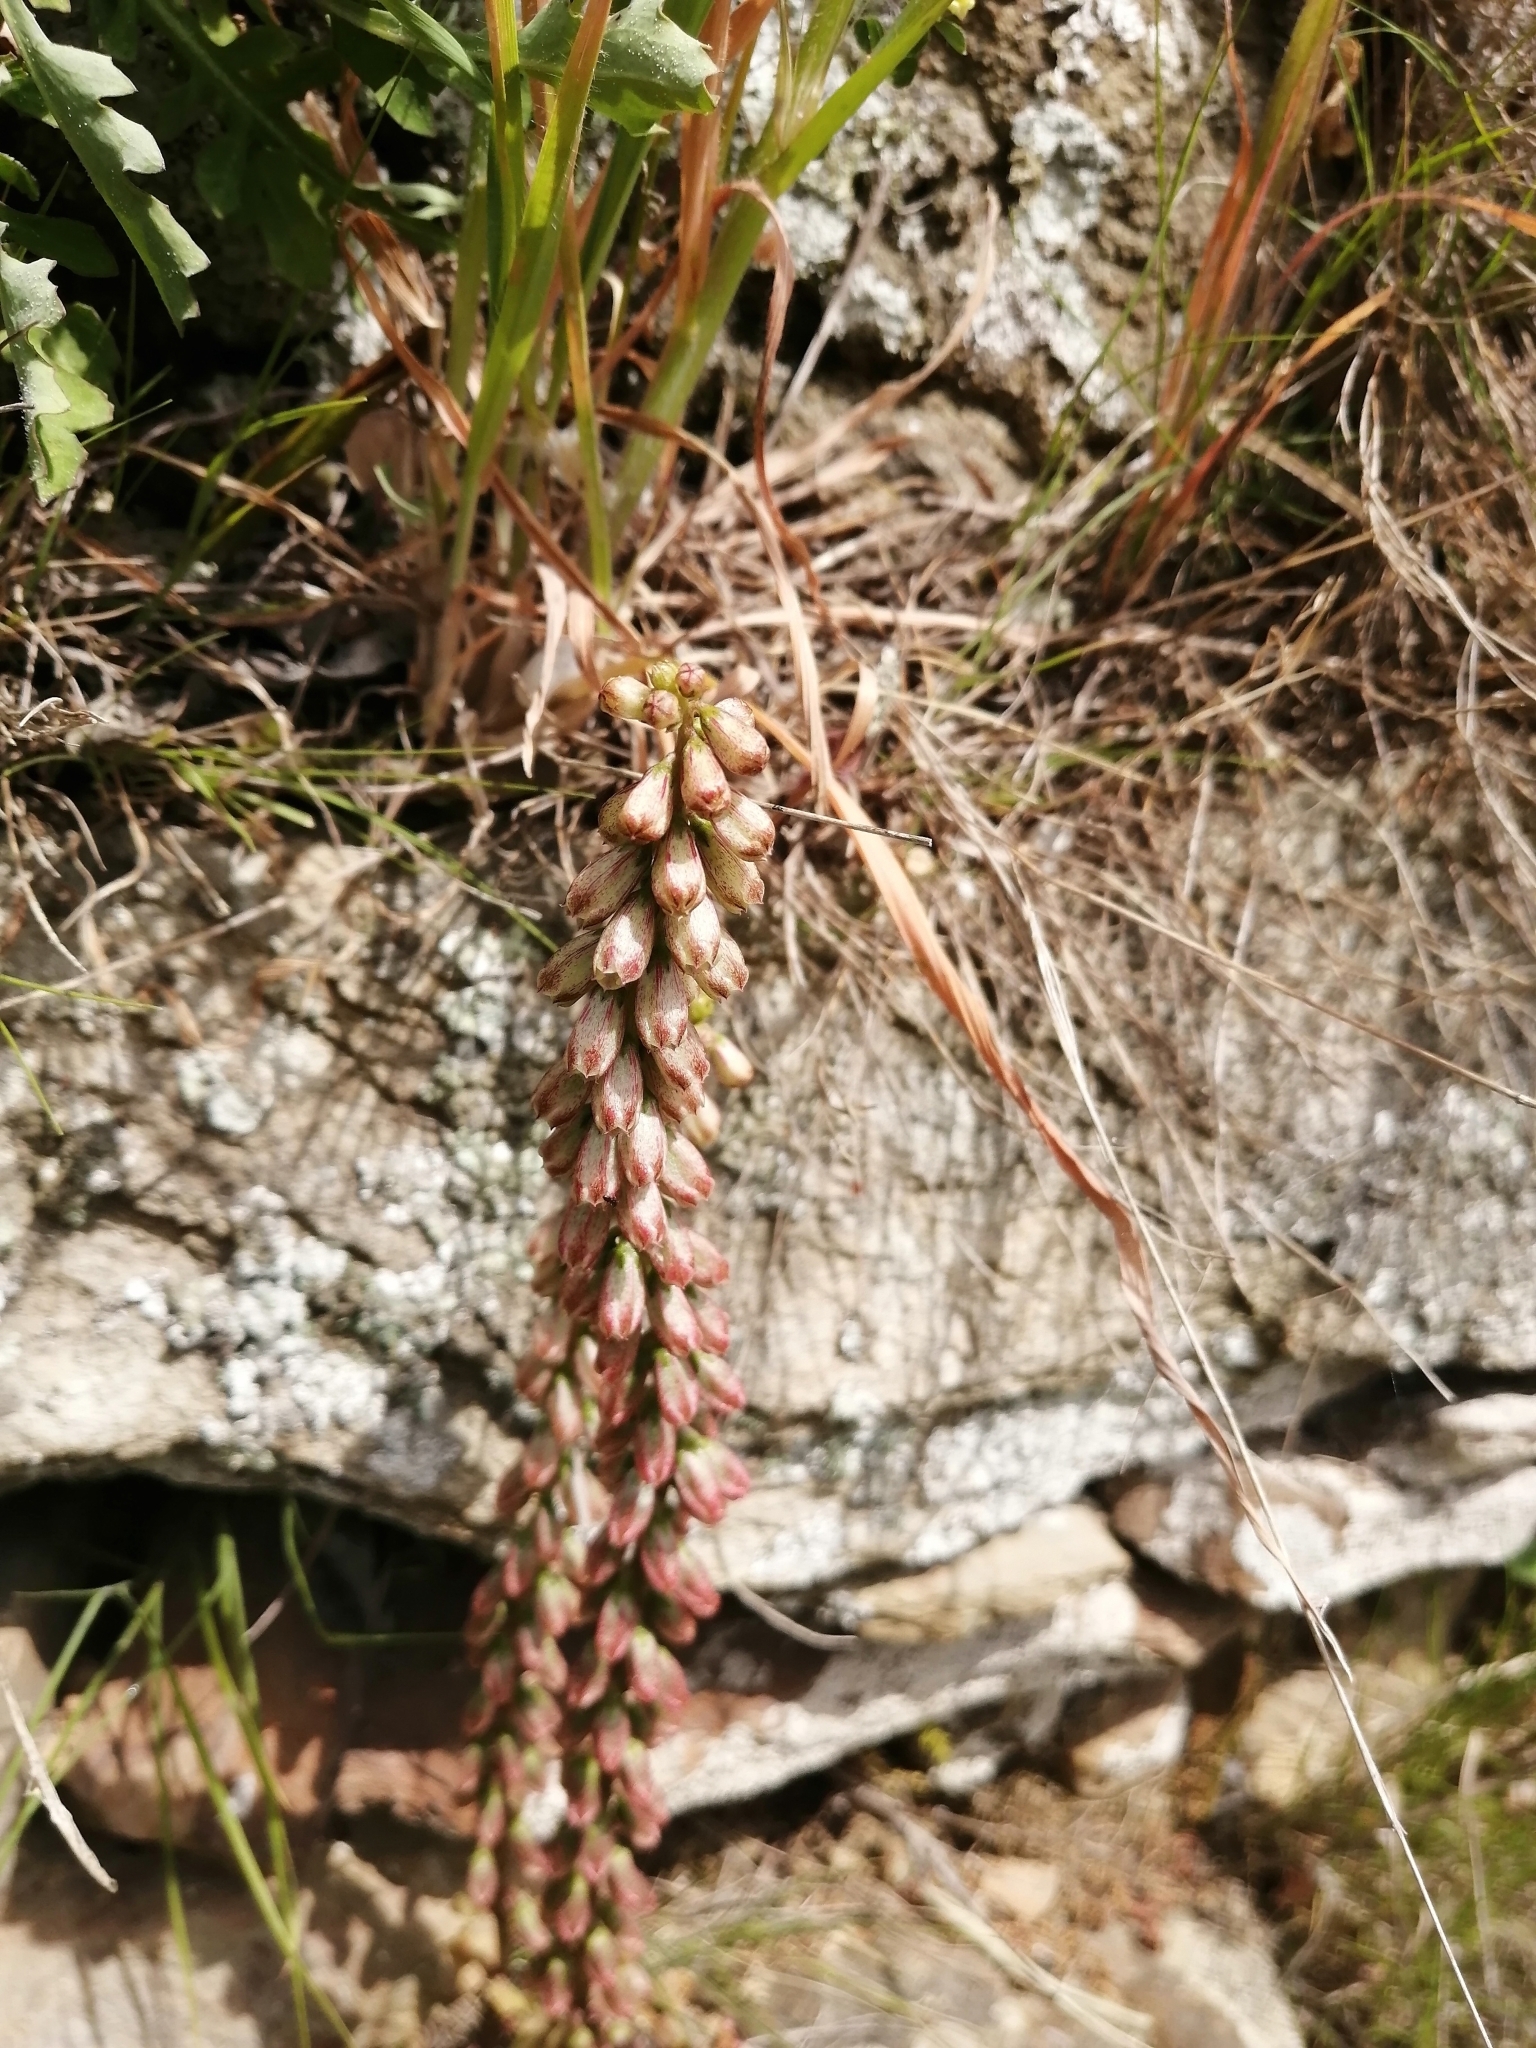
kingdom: Plantae
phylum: Tracheophyta
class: Magnoliopsida
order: Saxifragales
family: Crassulaceae
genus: Umbilicus
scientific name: Umbilicus rupestris
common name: Navelwort
